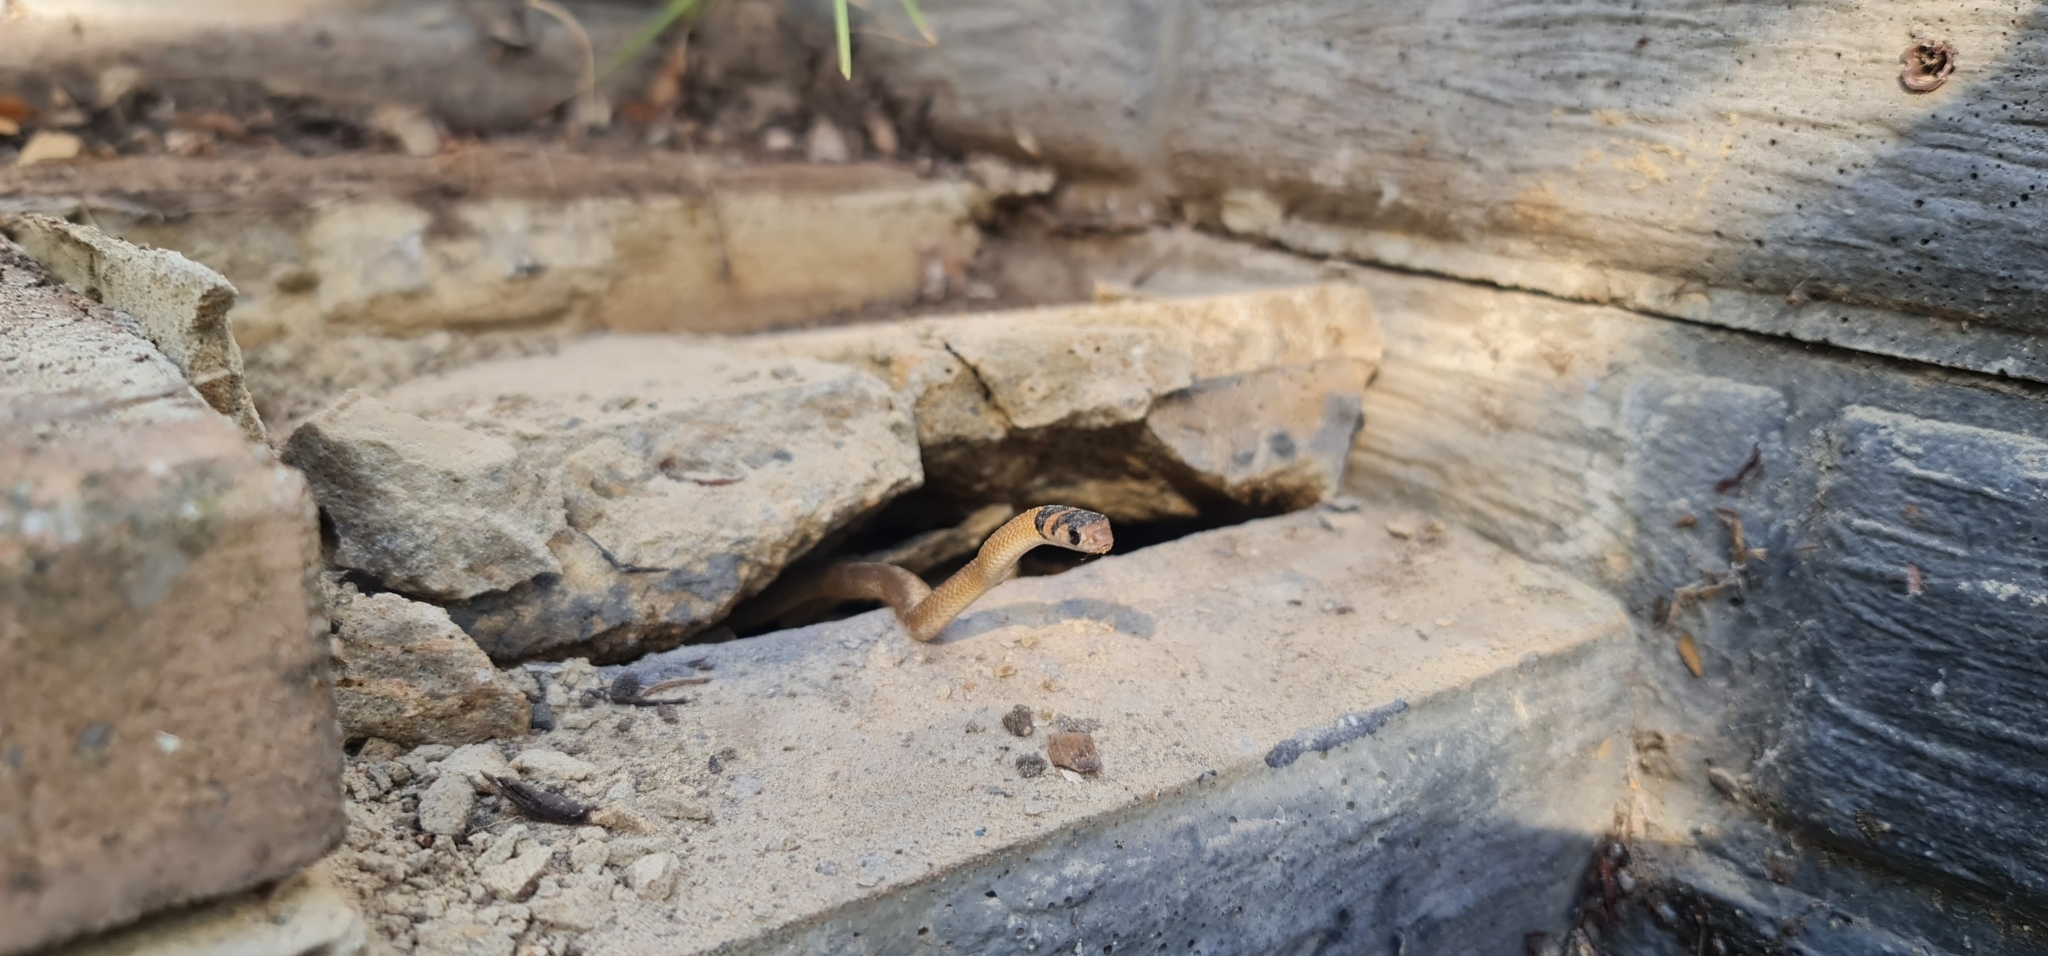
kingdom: Animalia
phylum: Chordata
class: Squamata
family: Elapidae
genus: Pseudonaja
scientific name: Pseudonaja textilis
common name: Eastern brown snake
